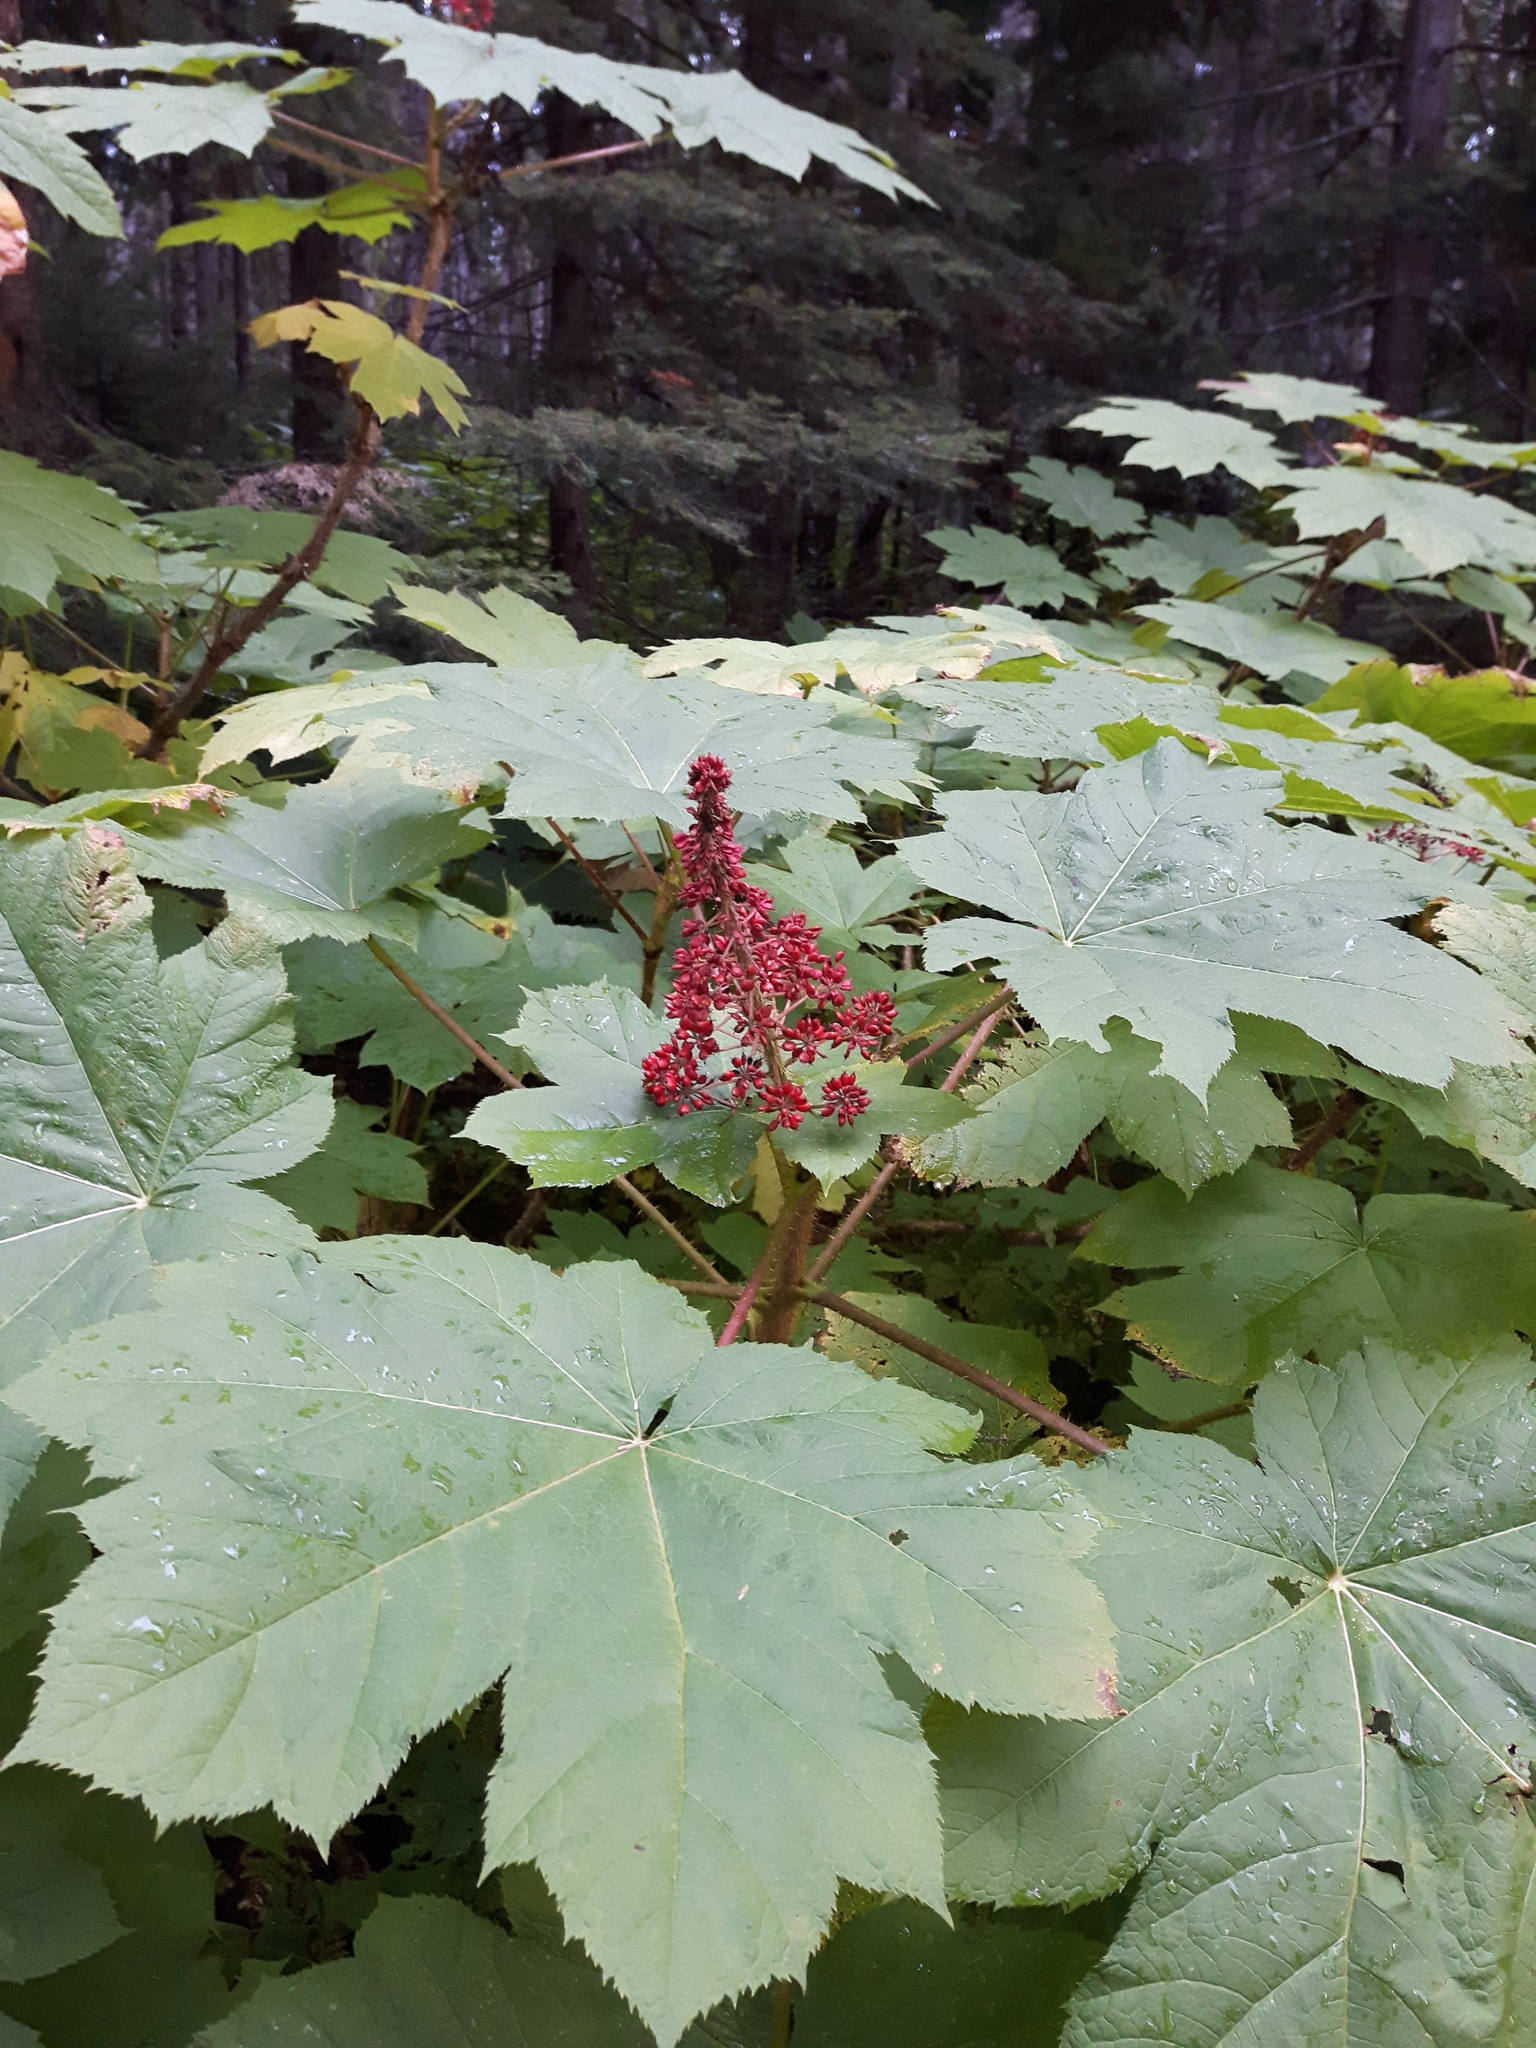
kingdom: Plantae
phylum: Tracheophyta
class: Magnoliopsida
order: Apiales
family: Araliaceae
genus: Oplopanax
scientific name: Oplopanax horridus
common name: Devil's walking-stick
